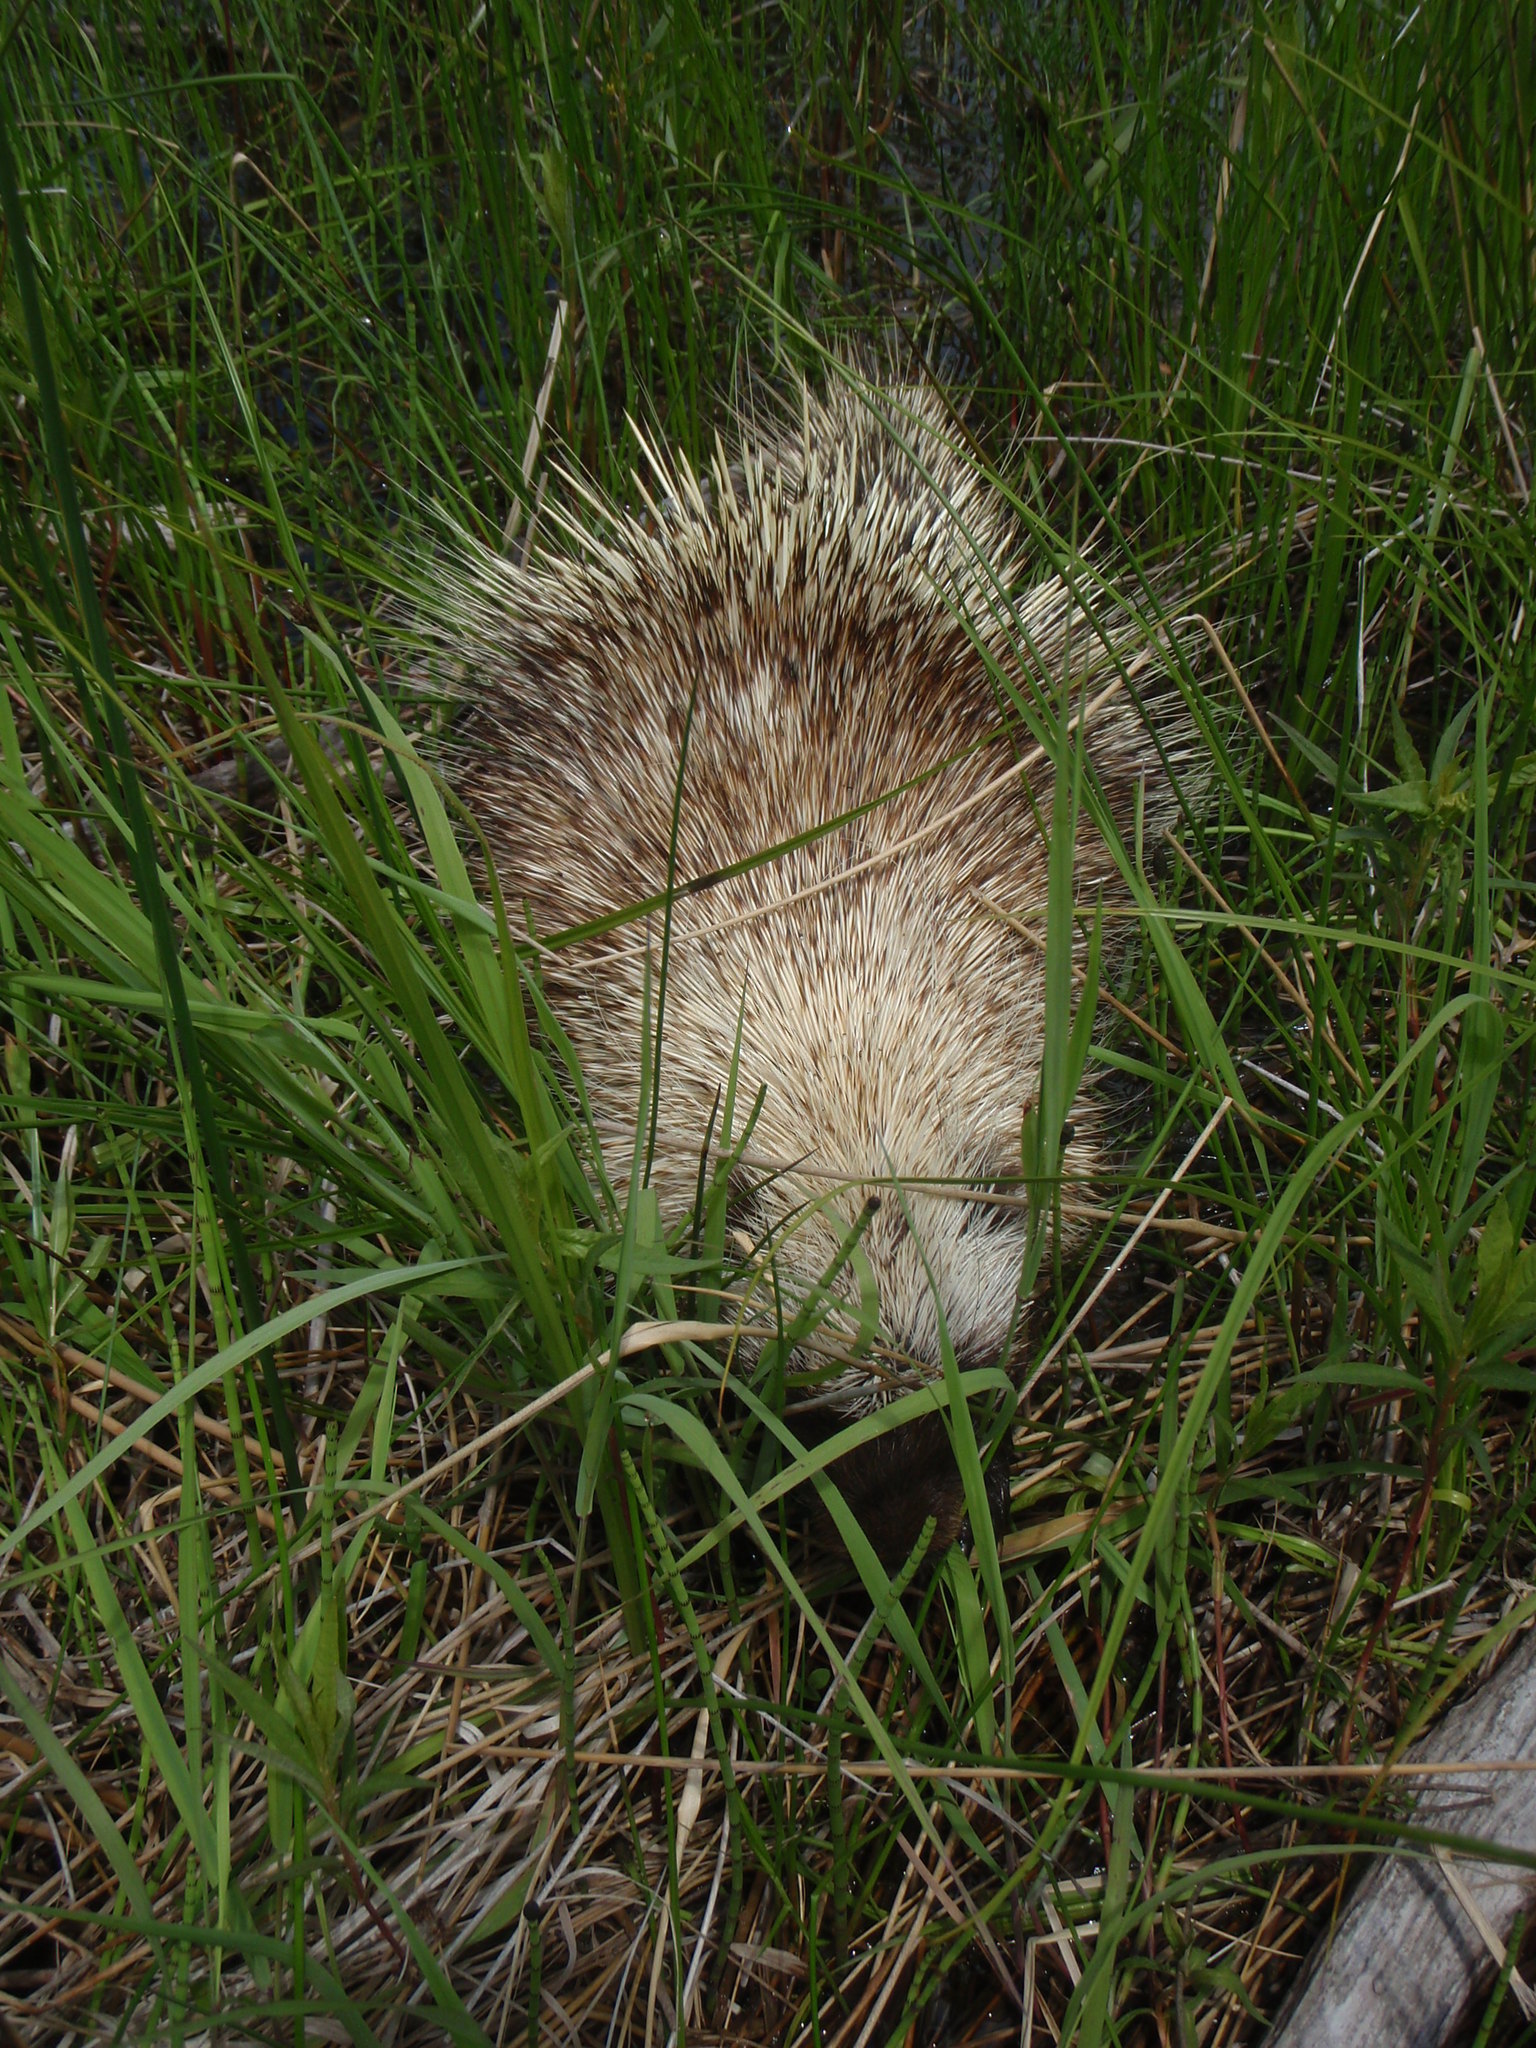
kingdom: Animalia
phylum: Chordata
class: Mammalia
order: Rodentia
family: Erethizontidae
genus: Erethizon
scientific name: Erethizon dorsatus
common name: North american porcupine
